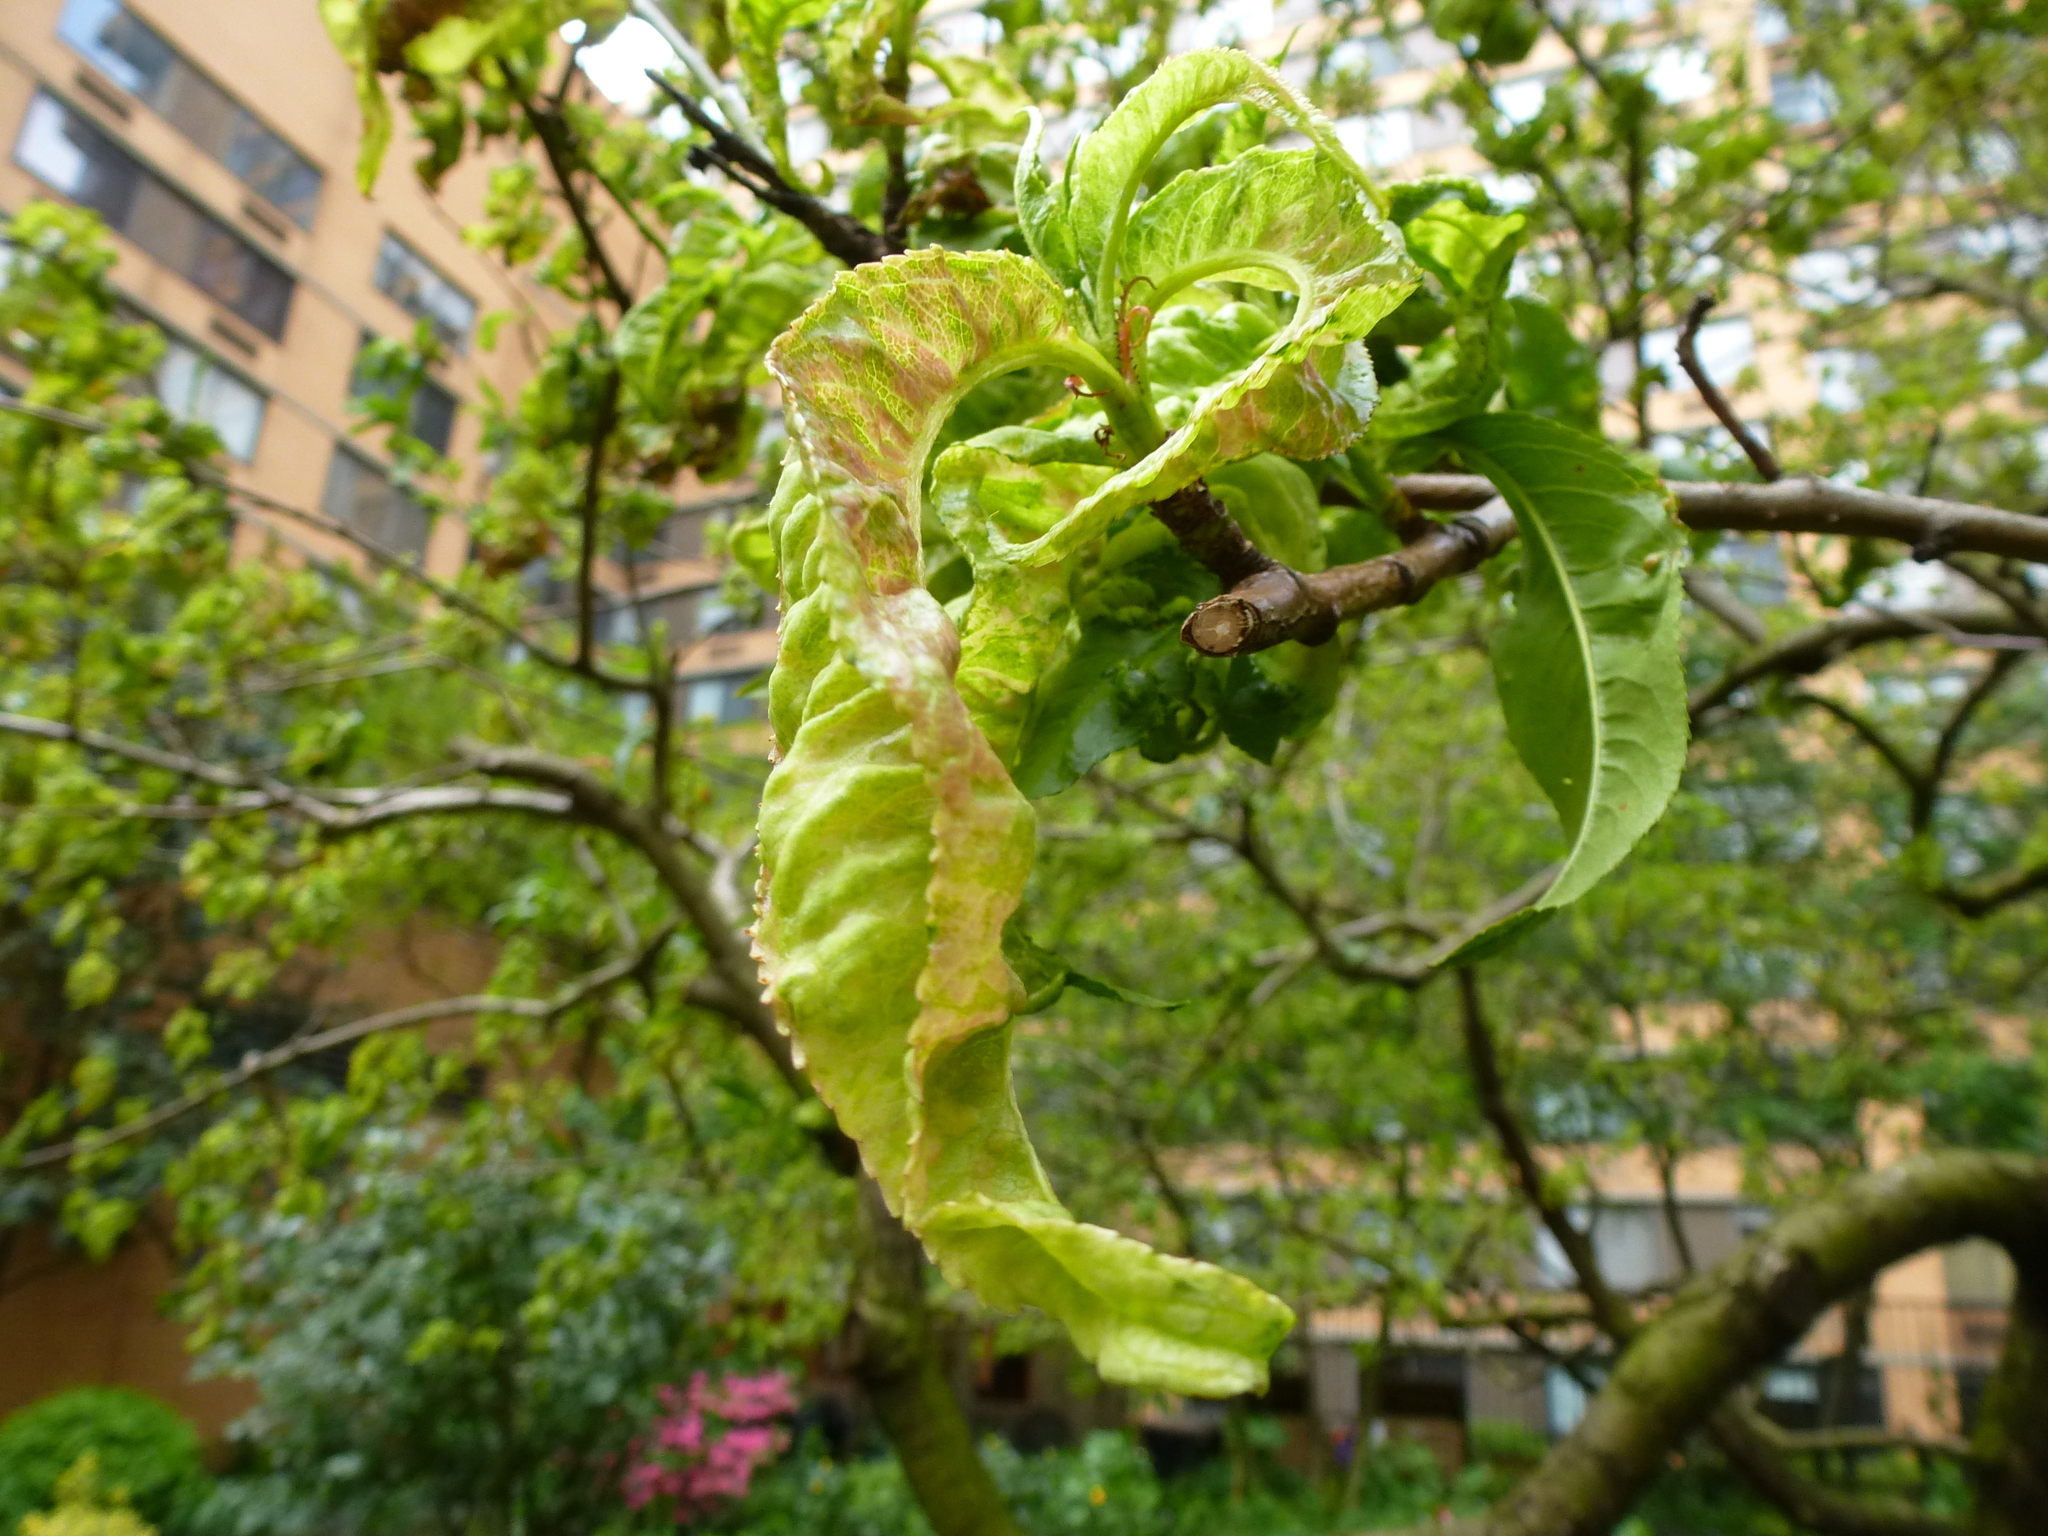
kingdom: Fungi
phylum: Ascomycota
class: Taphrinomycetes
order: Taphrinales
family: Taphrinaceae
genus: Taphrina
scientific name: Taphrina deformans
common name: Peach leaf curl
